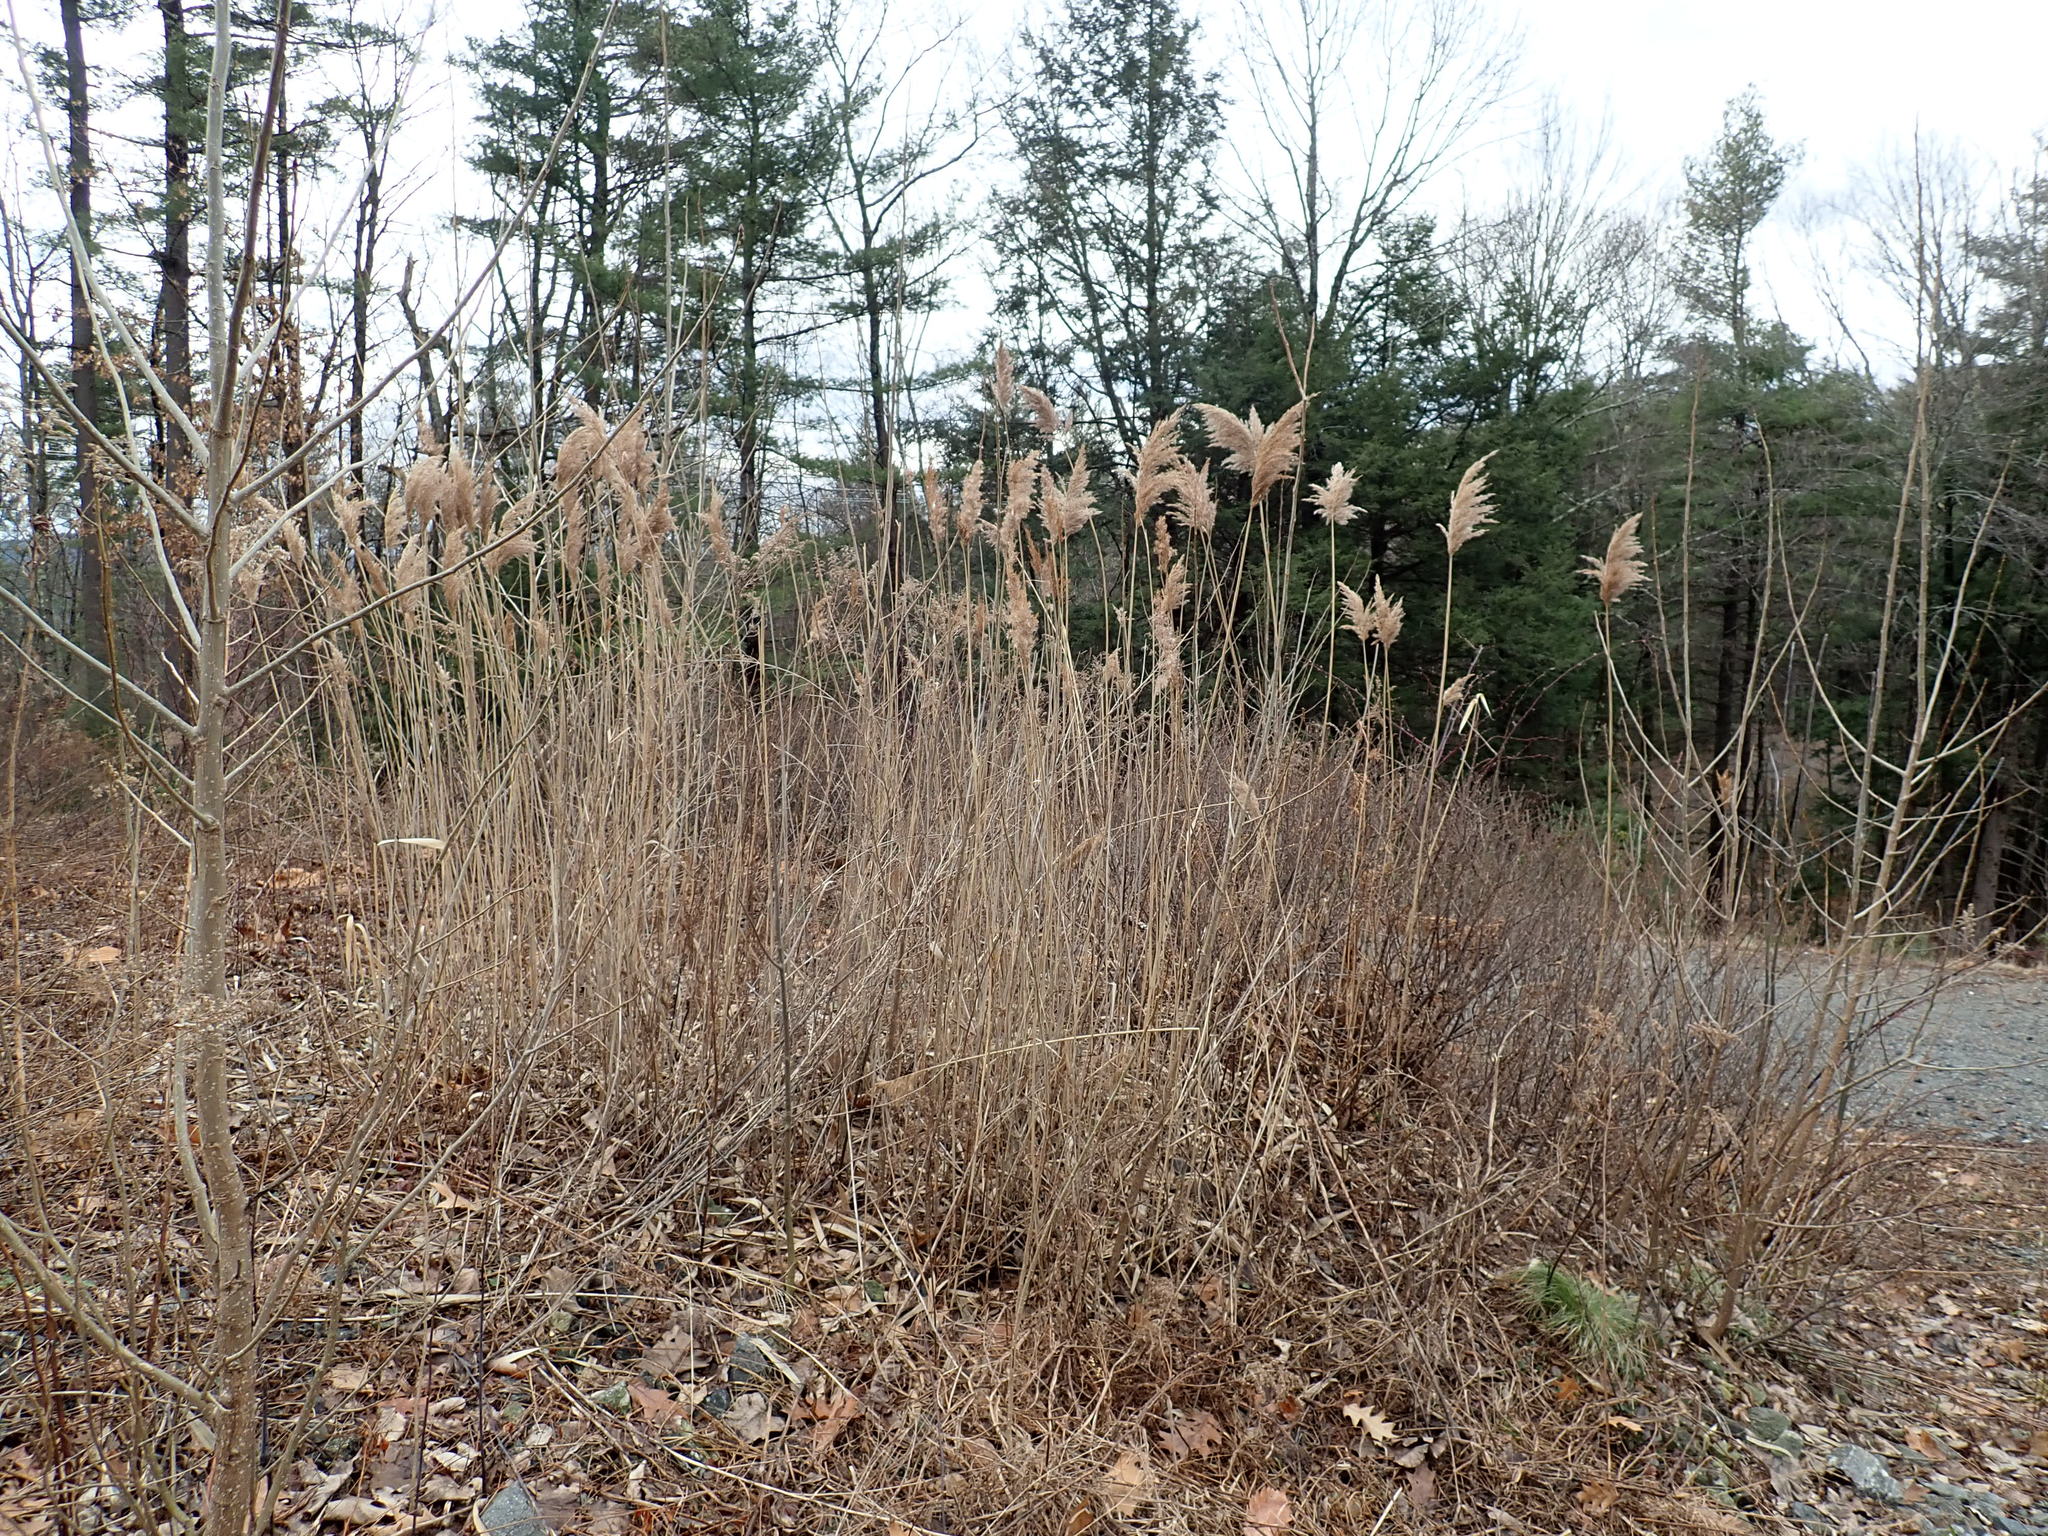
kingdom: Plantae
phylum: Tracheophyta
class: Liliopsida
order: Poales
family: Poaceae
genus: Phragmites
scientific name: Phragmites australis
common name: Common reed
